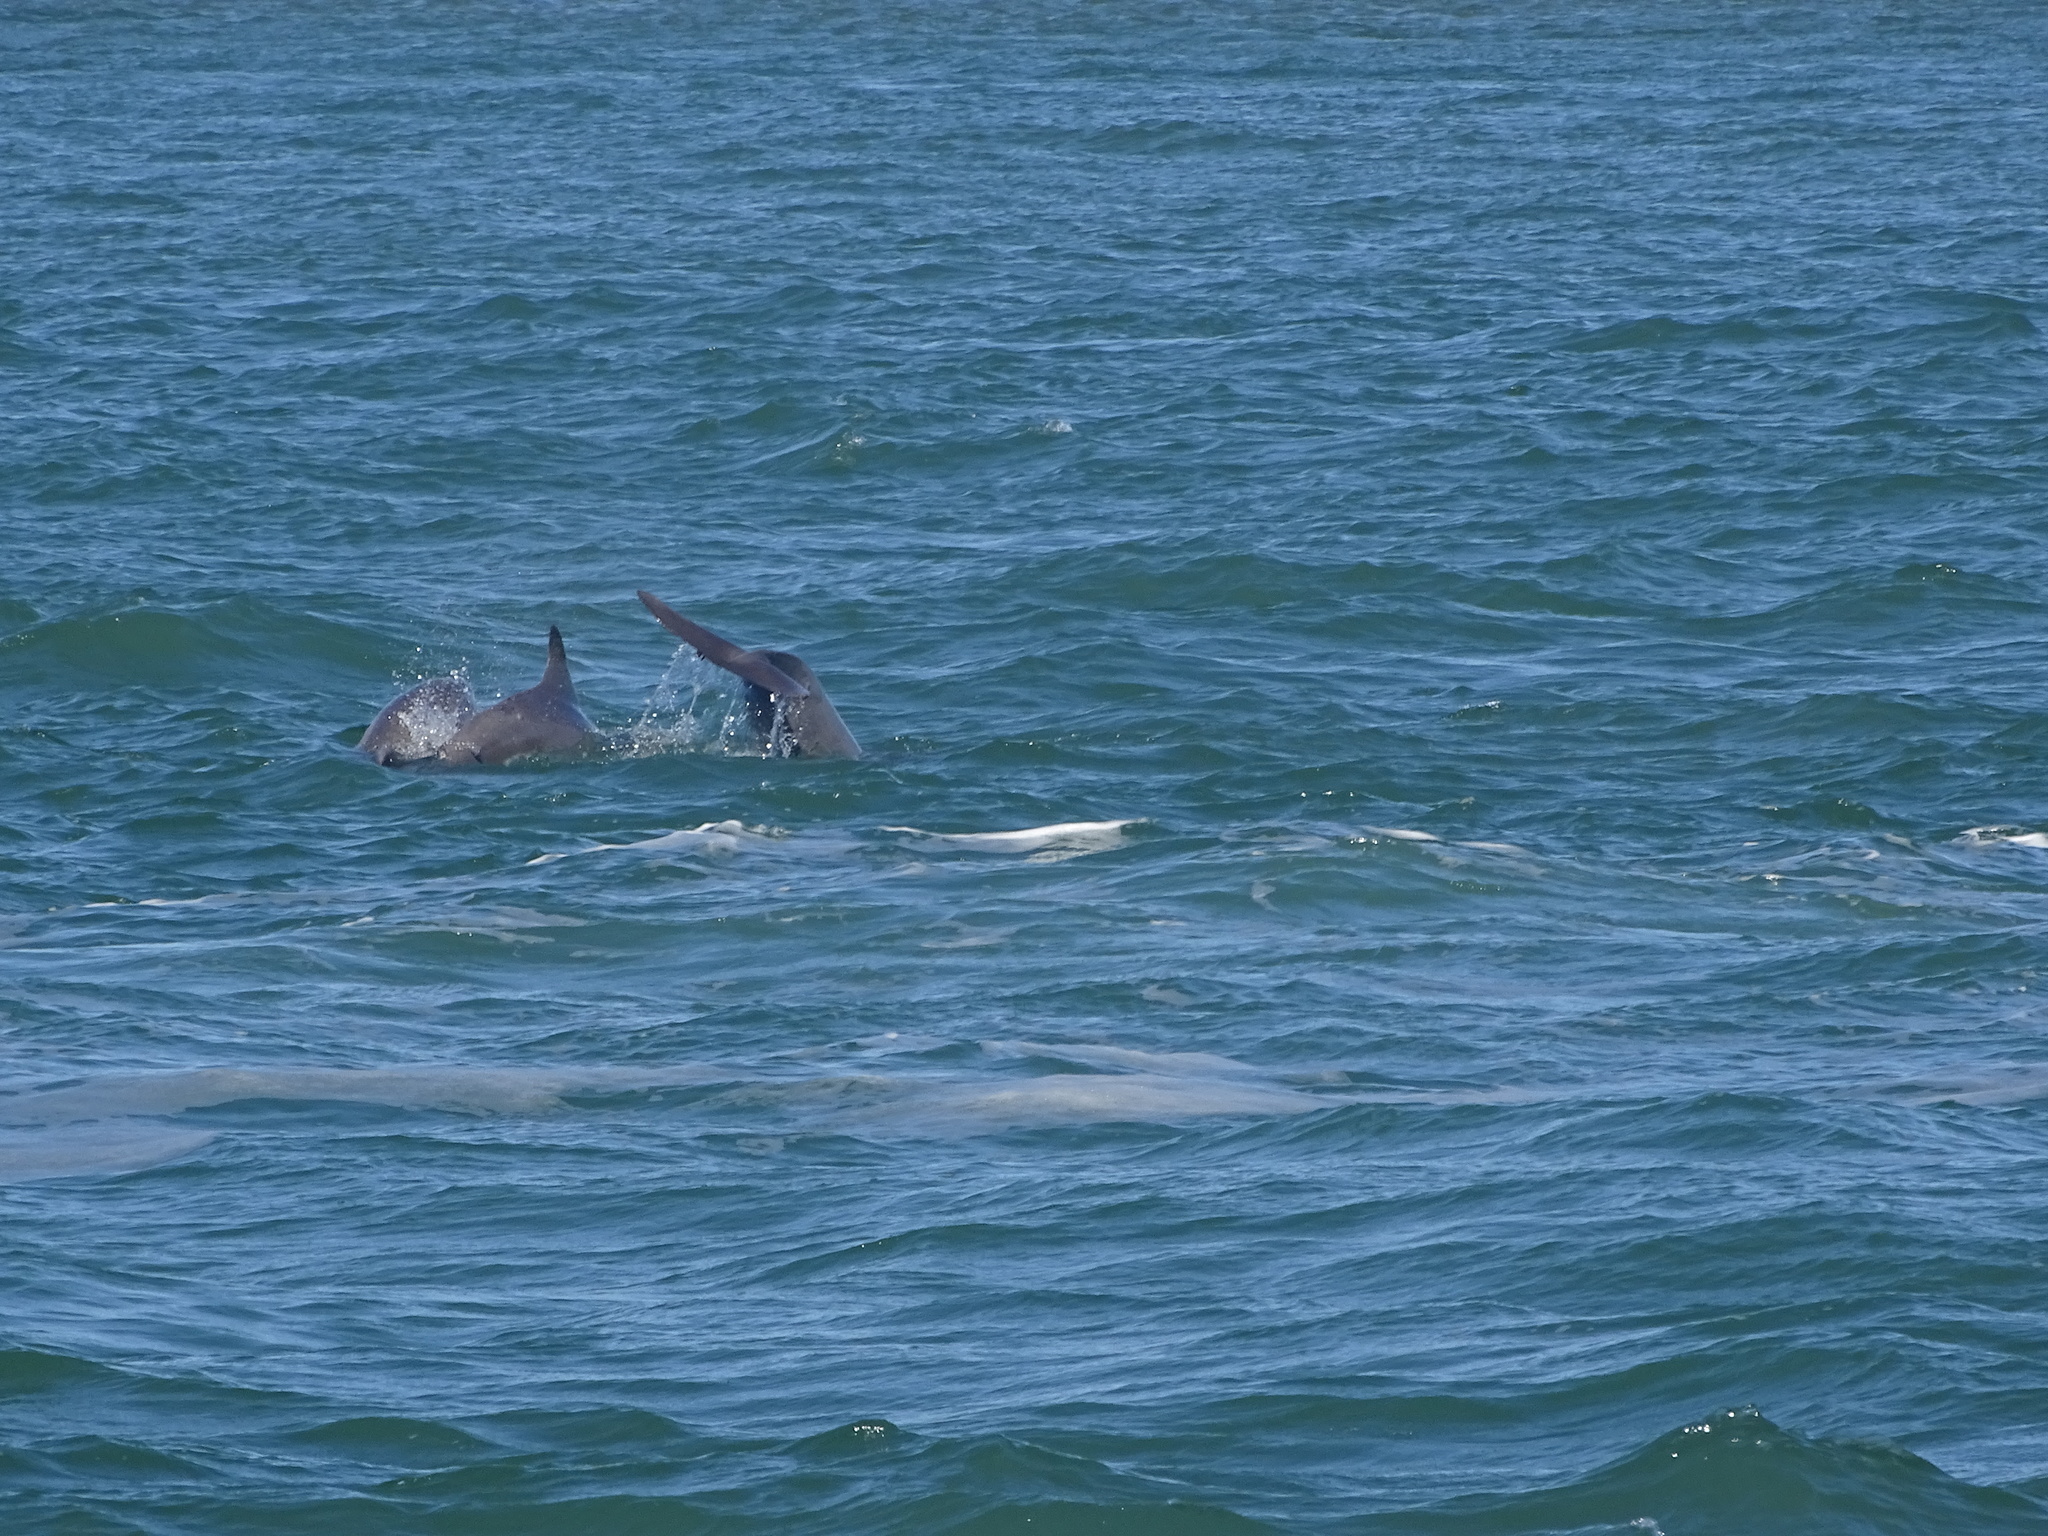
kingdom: Animalia
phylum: Chordata
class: Mammalia
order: Cetacea
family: Delphinidae
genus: Tursiops
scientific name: Tursiops truncatus
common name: Bottlenose dolphin
